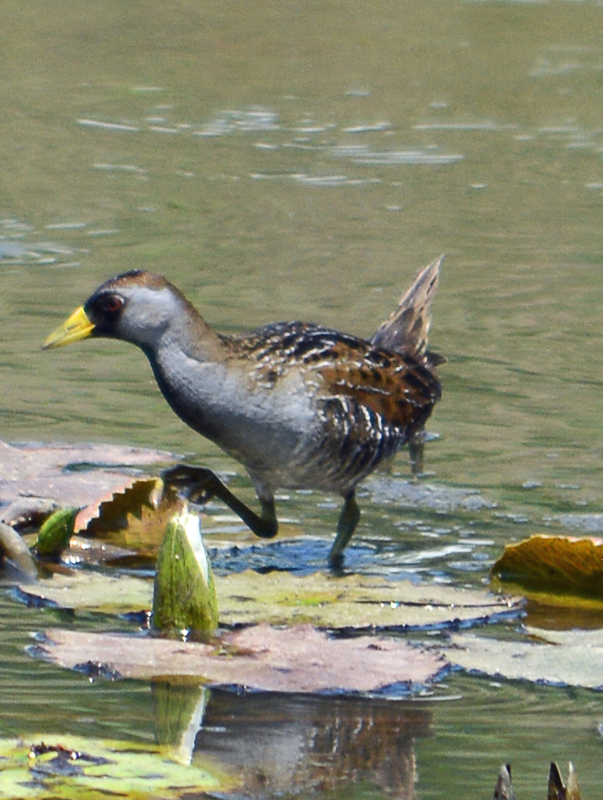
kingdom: Animalia
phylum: Chordata
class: Aves
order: Gruiformes
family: Rallidae
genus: Porzana
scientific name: Porzana carolina
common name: Sora
